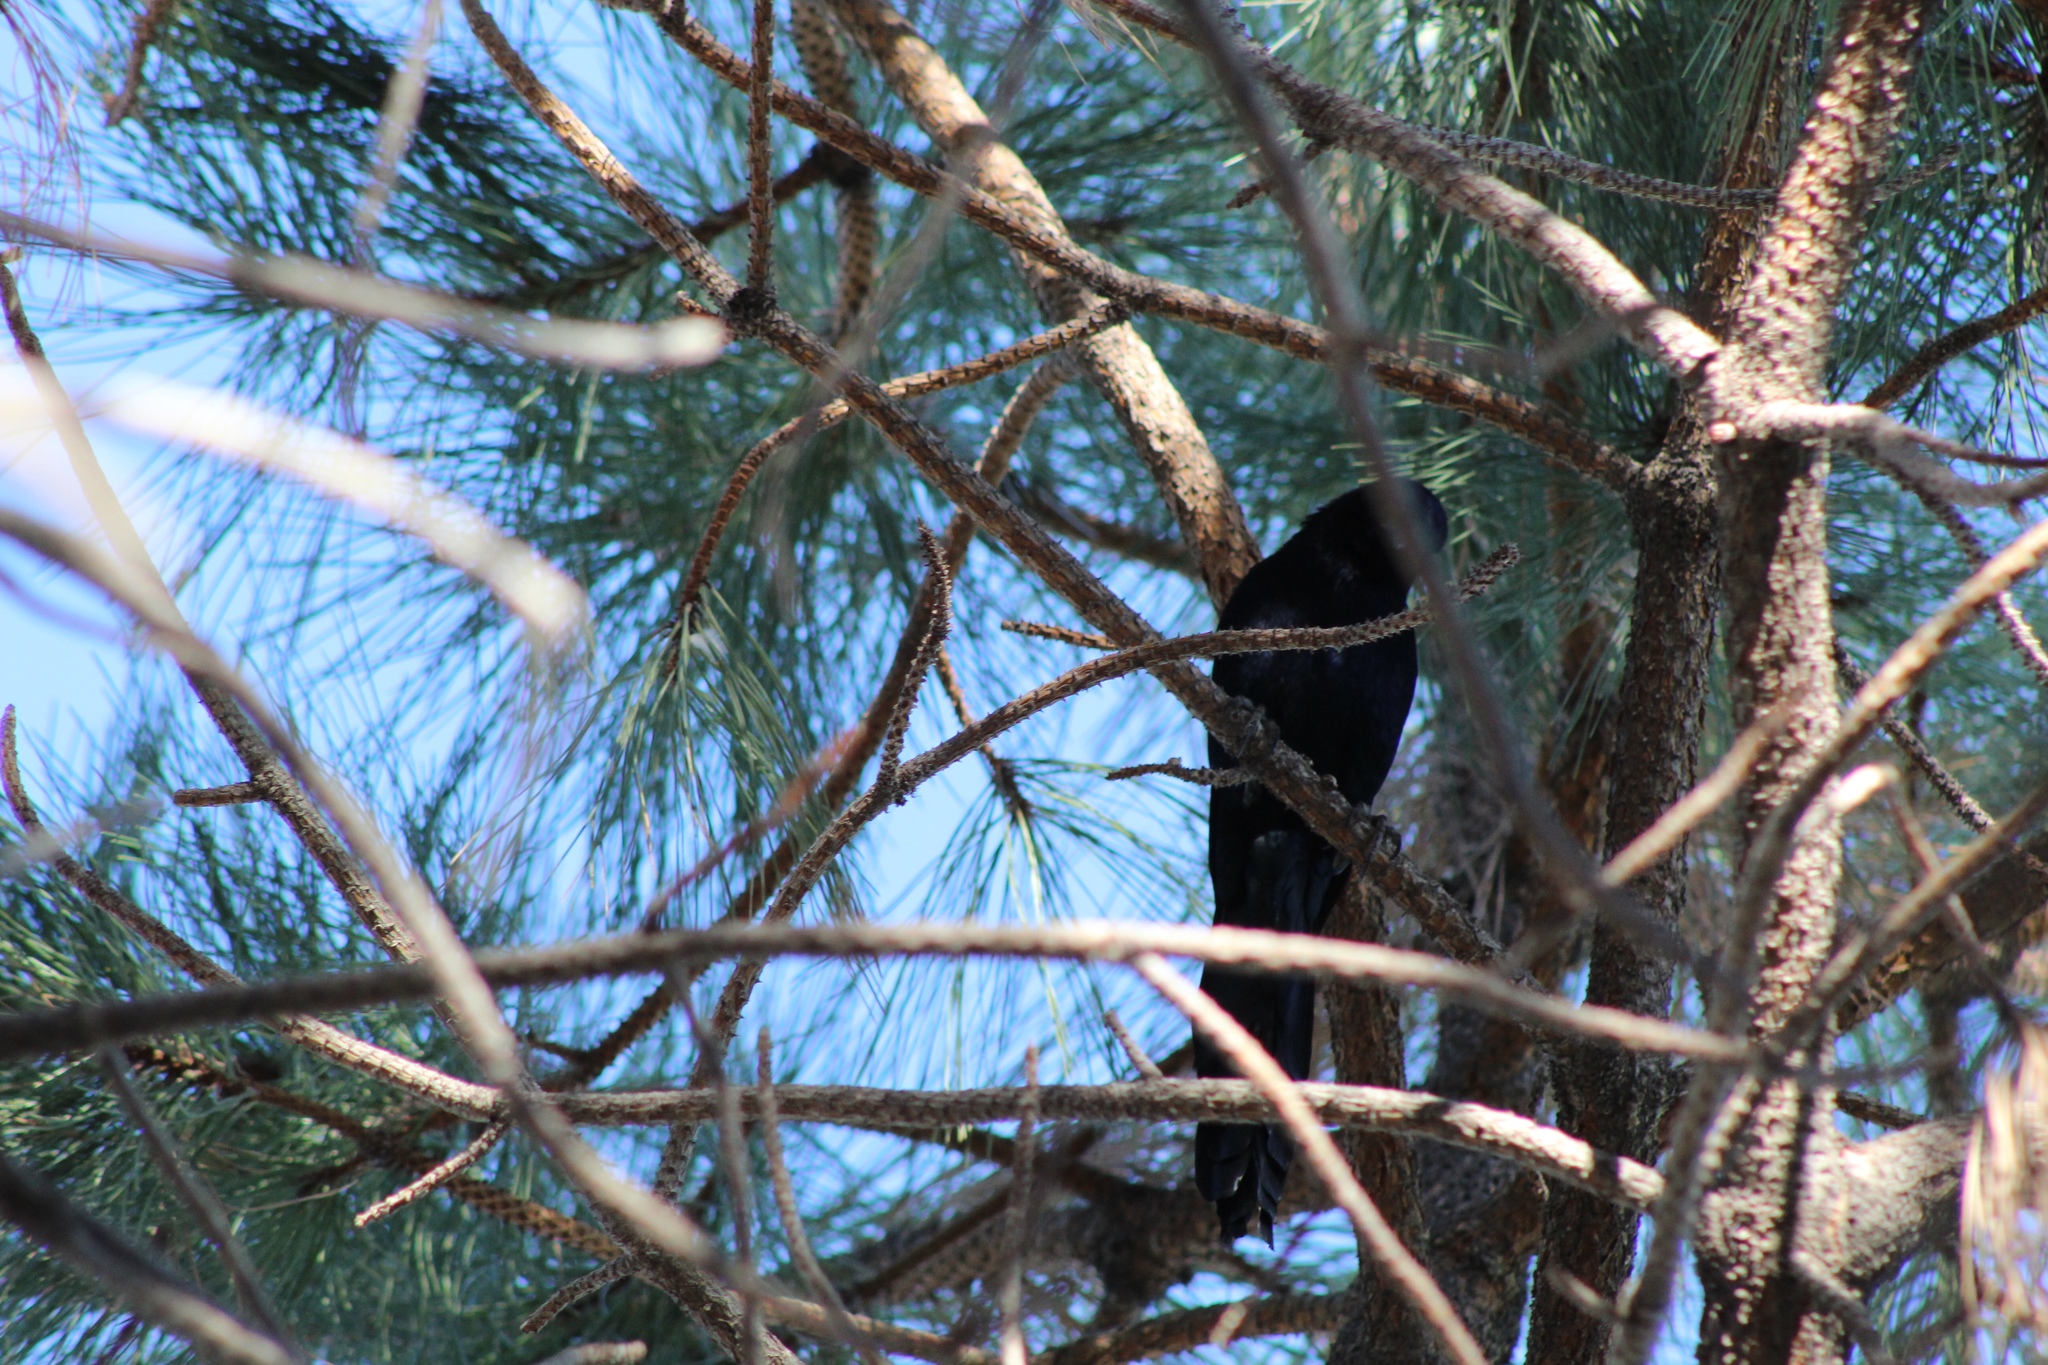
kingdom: Animalia
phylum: Chordata
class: Aves
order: Passeriformes
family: Icteridae
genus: Quiscalus
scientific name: Quiscalus mexicanus
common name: Great-tailed grackle
